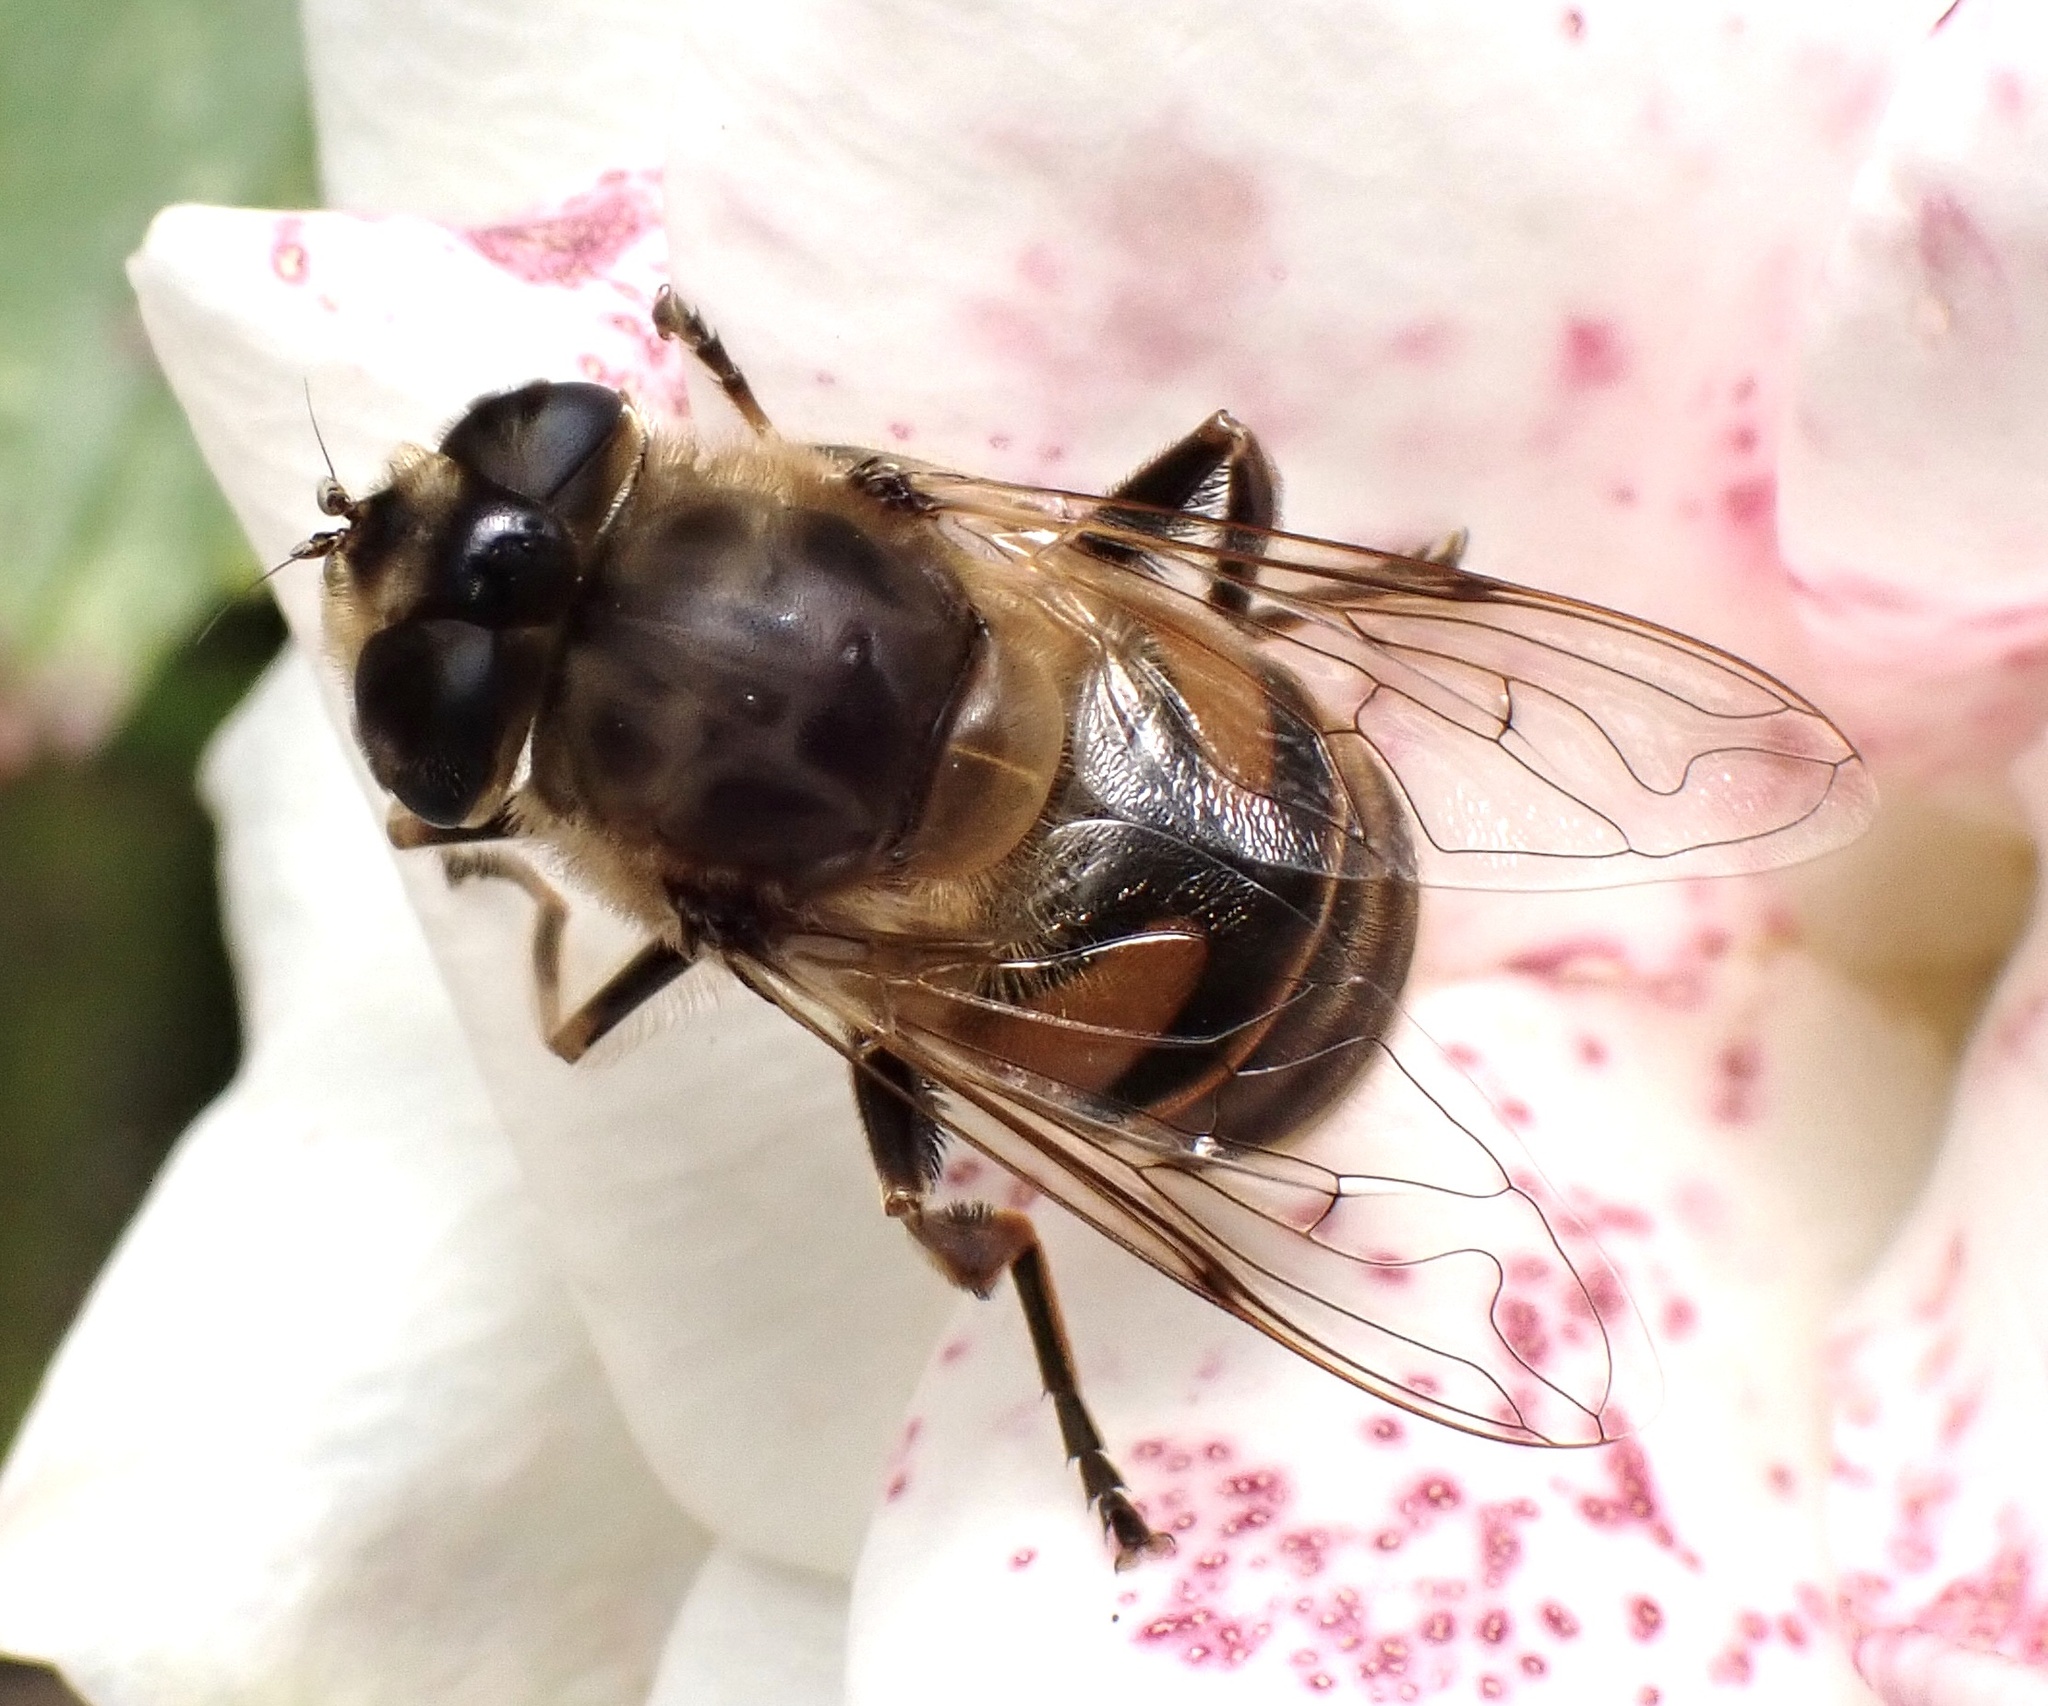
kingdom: Animalia
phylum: Arthropoda
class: Insecta
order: Diptera
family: Syrphidae
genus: Eristalis
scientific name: Eristalis tenax
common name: Drone fly
